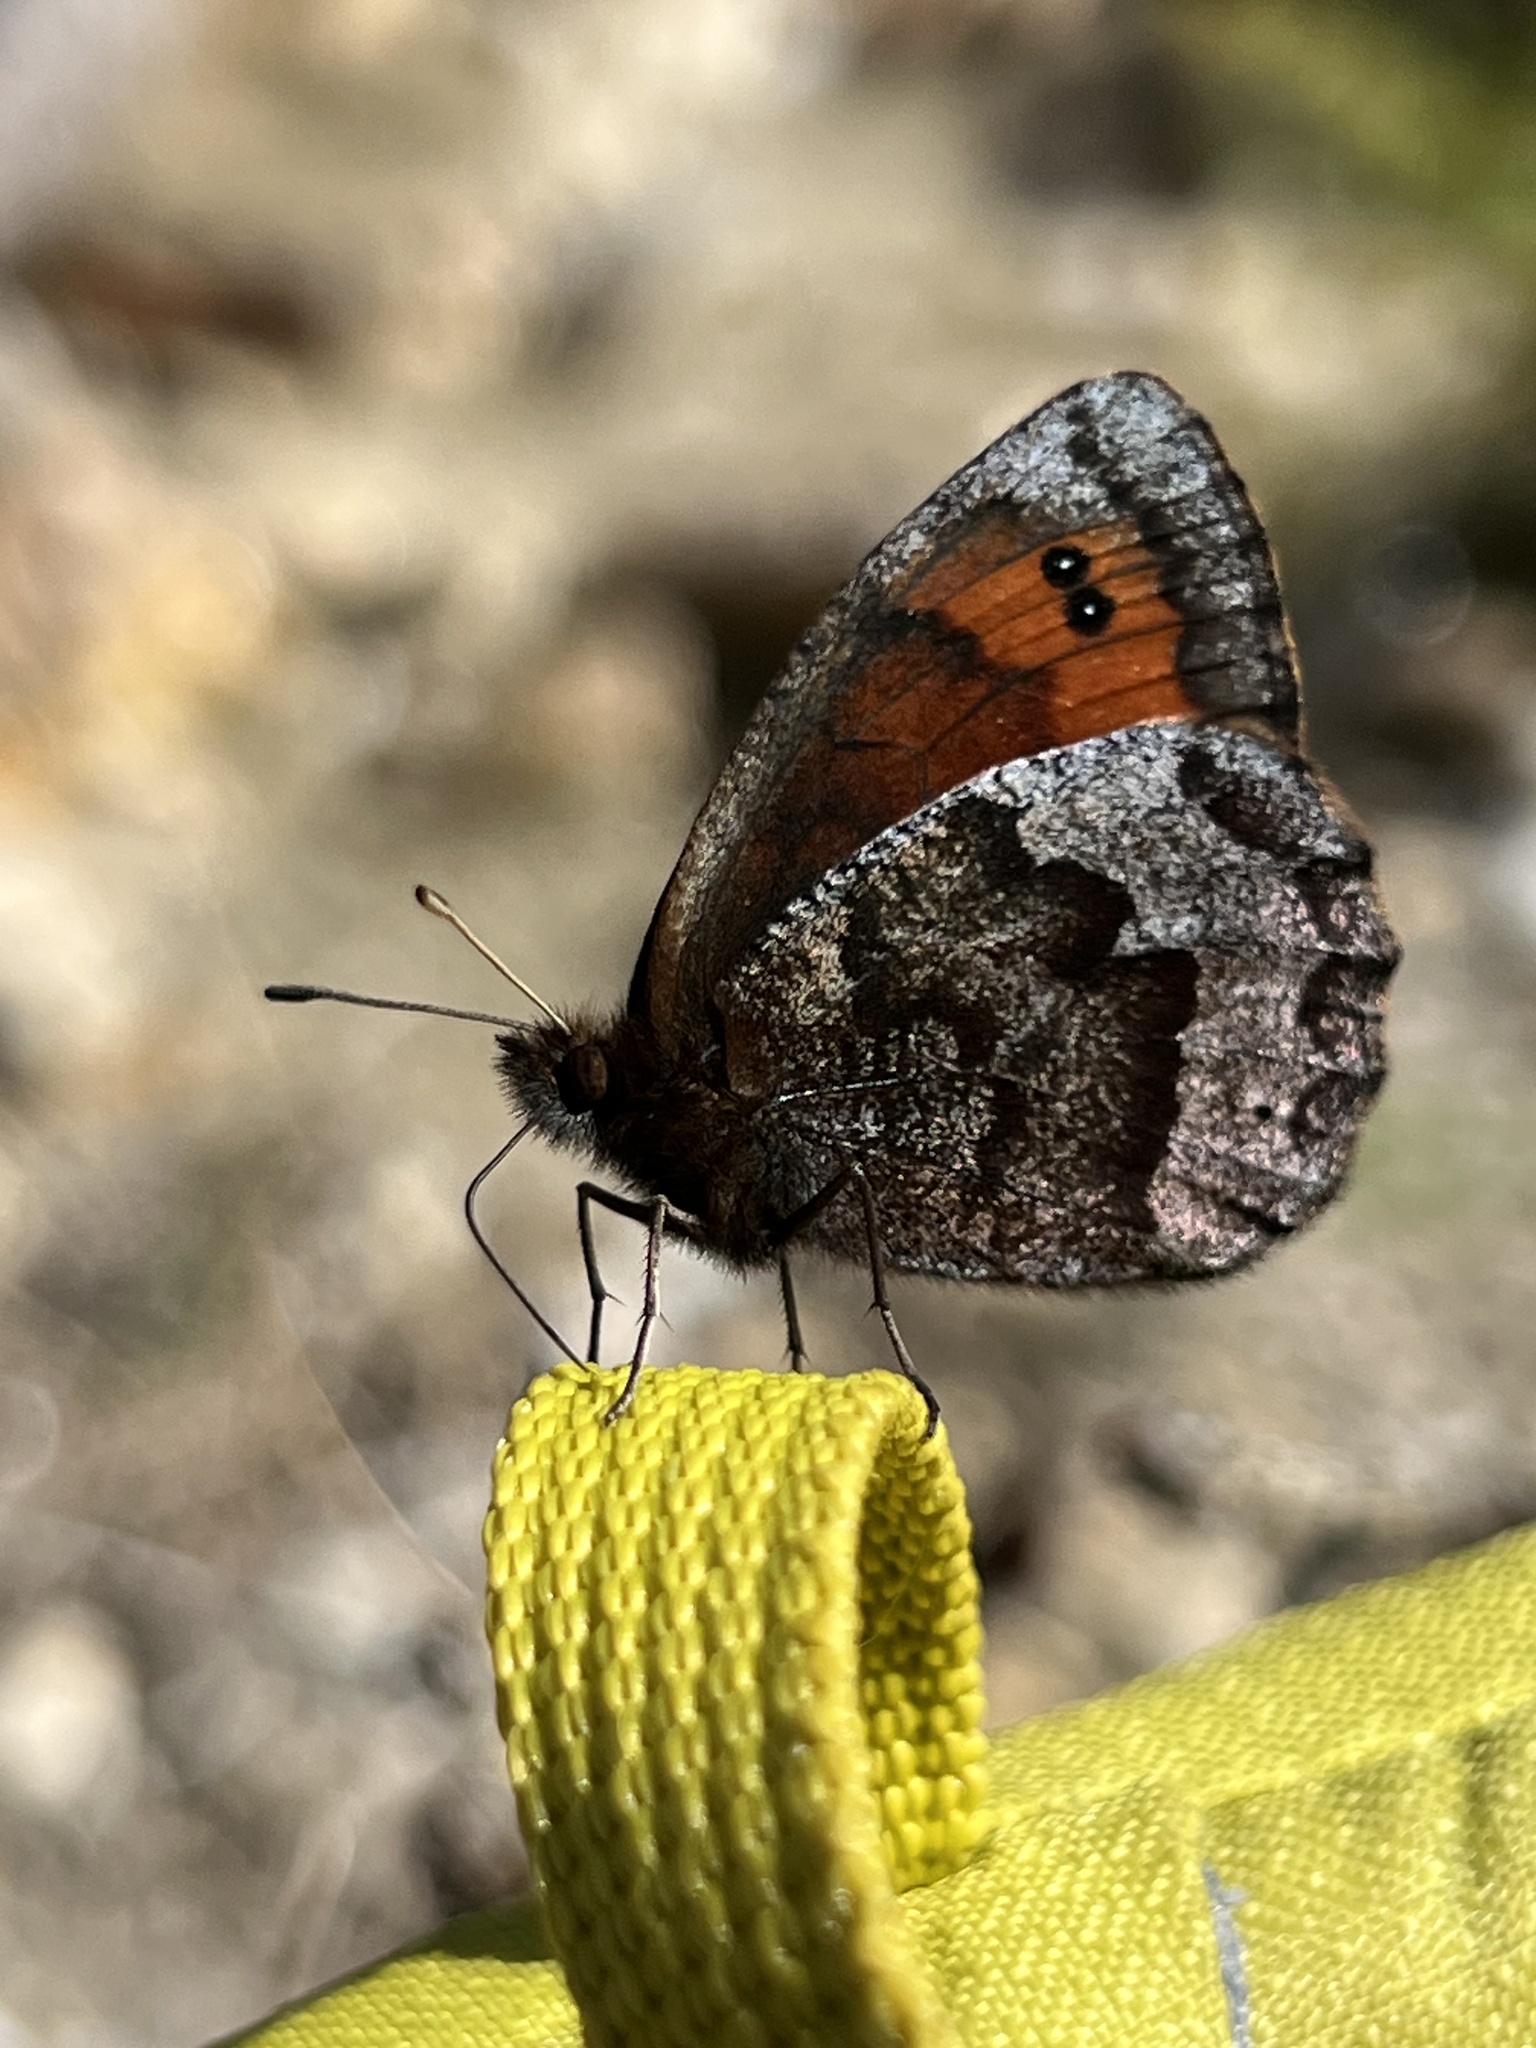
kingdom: Animalia
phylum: Arthropoda
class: Insecta
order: Lepidoptera
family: Nymphalidae
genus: Erebia
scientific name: Erebia pronoe
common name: Water ringlet
